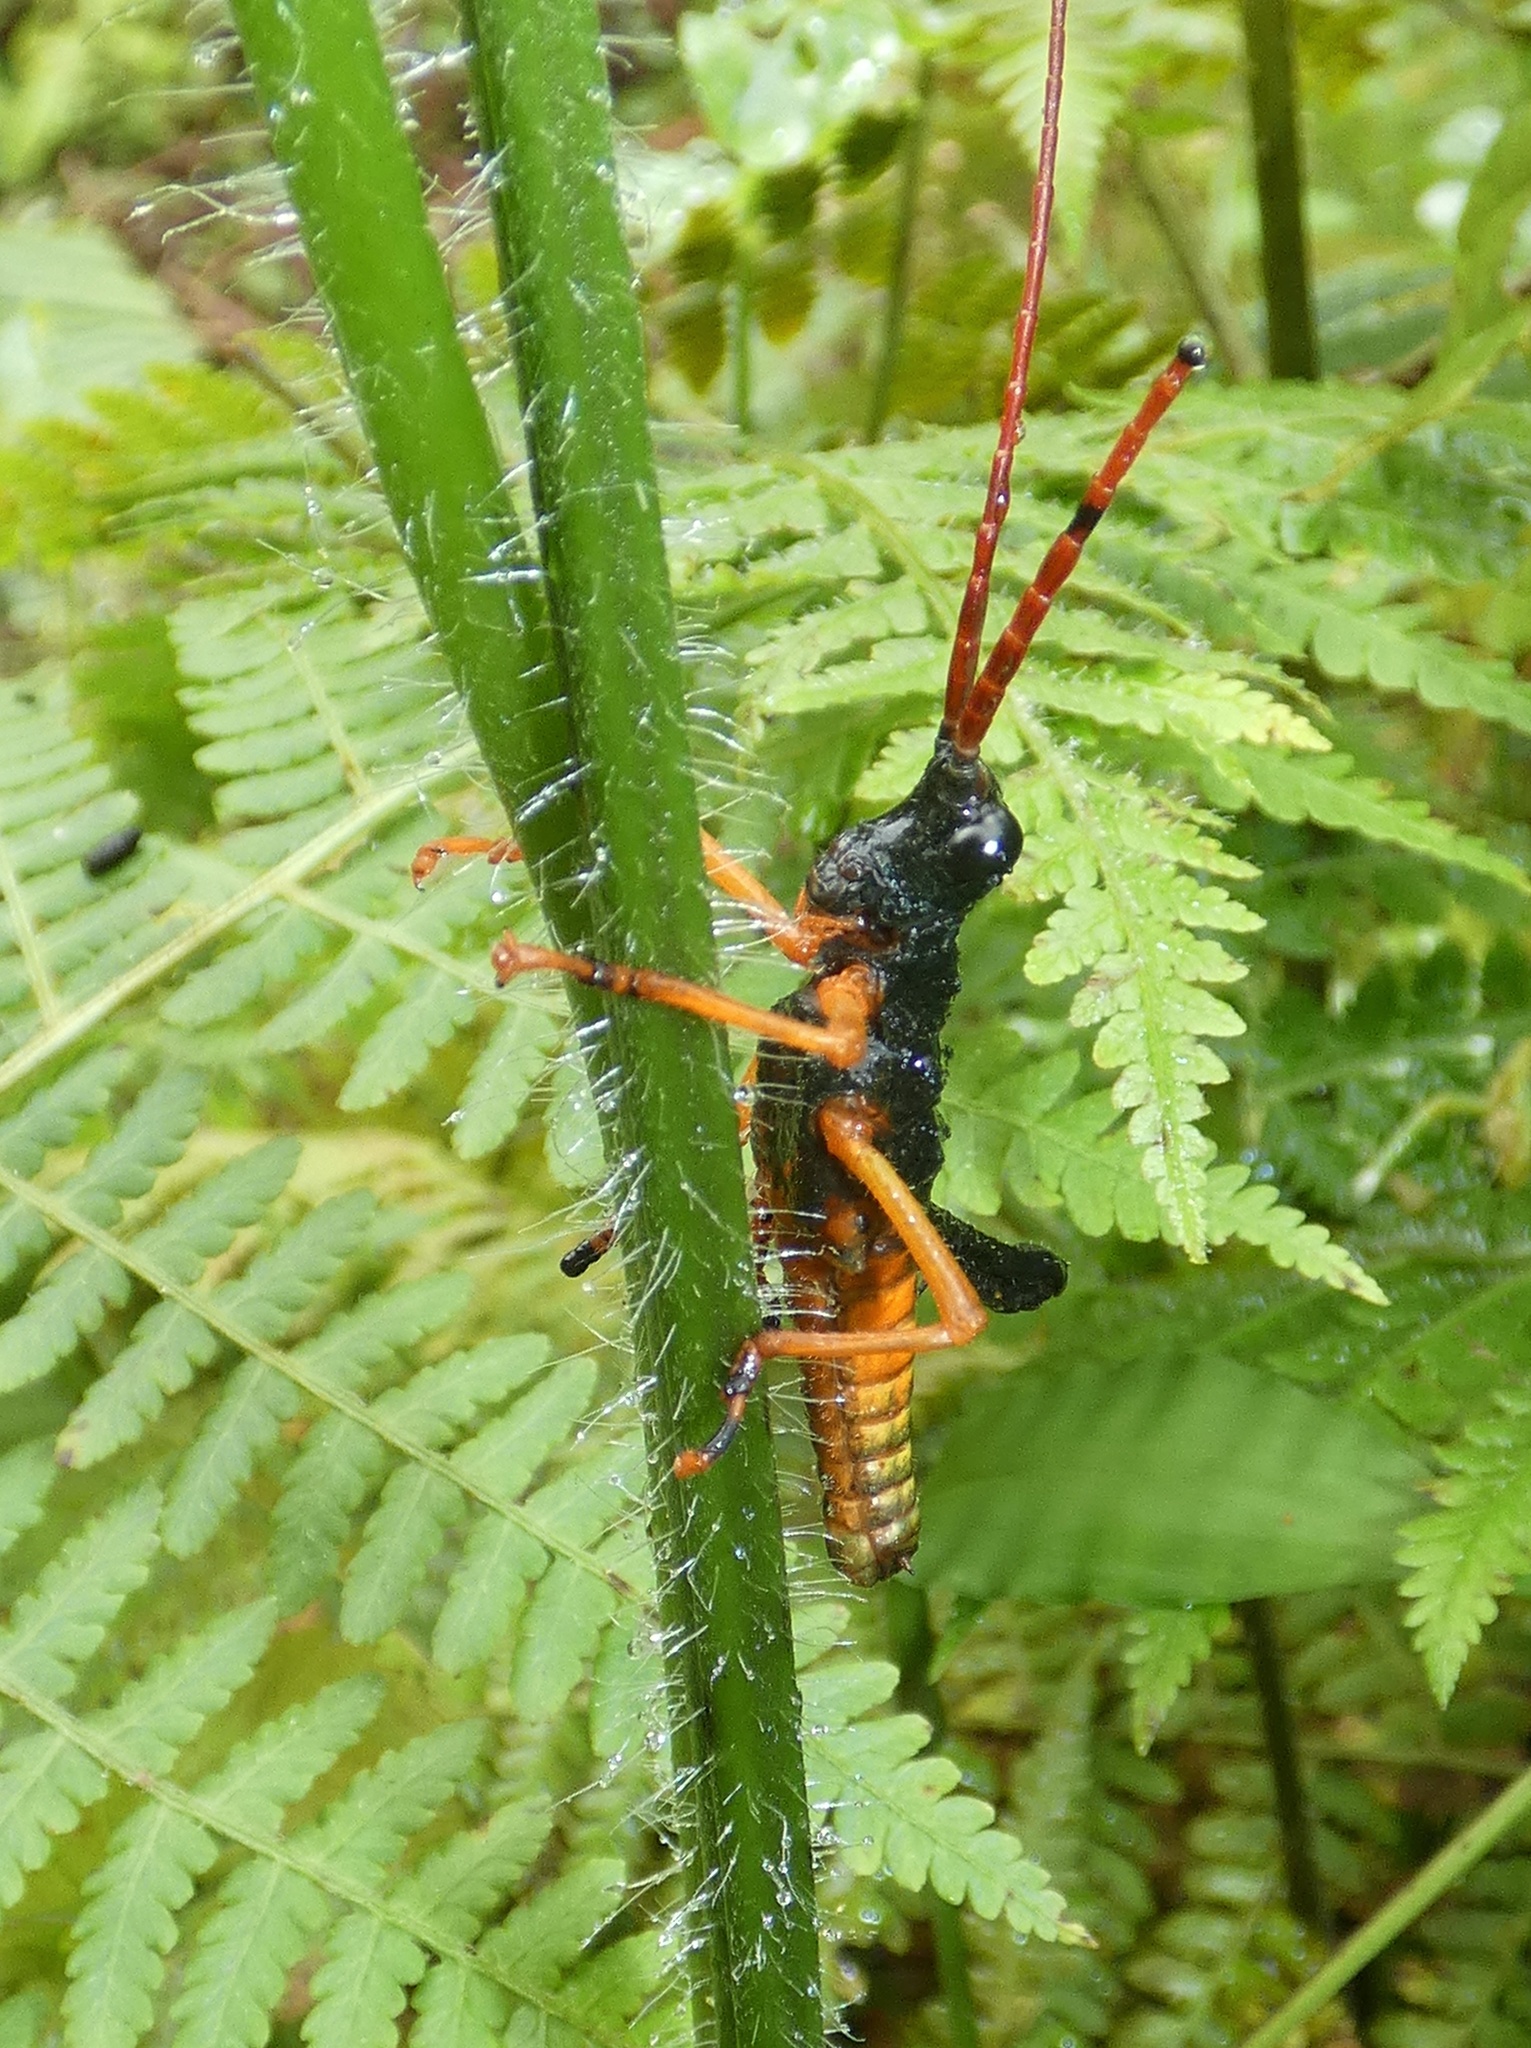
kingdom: Animalia
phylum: Arthropoda
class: Insecta
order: Orthoptera
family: Acrididae
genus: Piezops
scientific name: Piezops ensicornis
